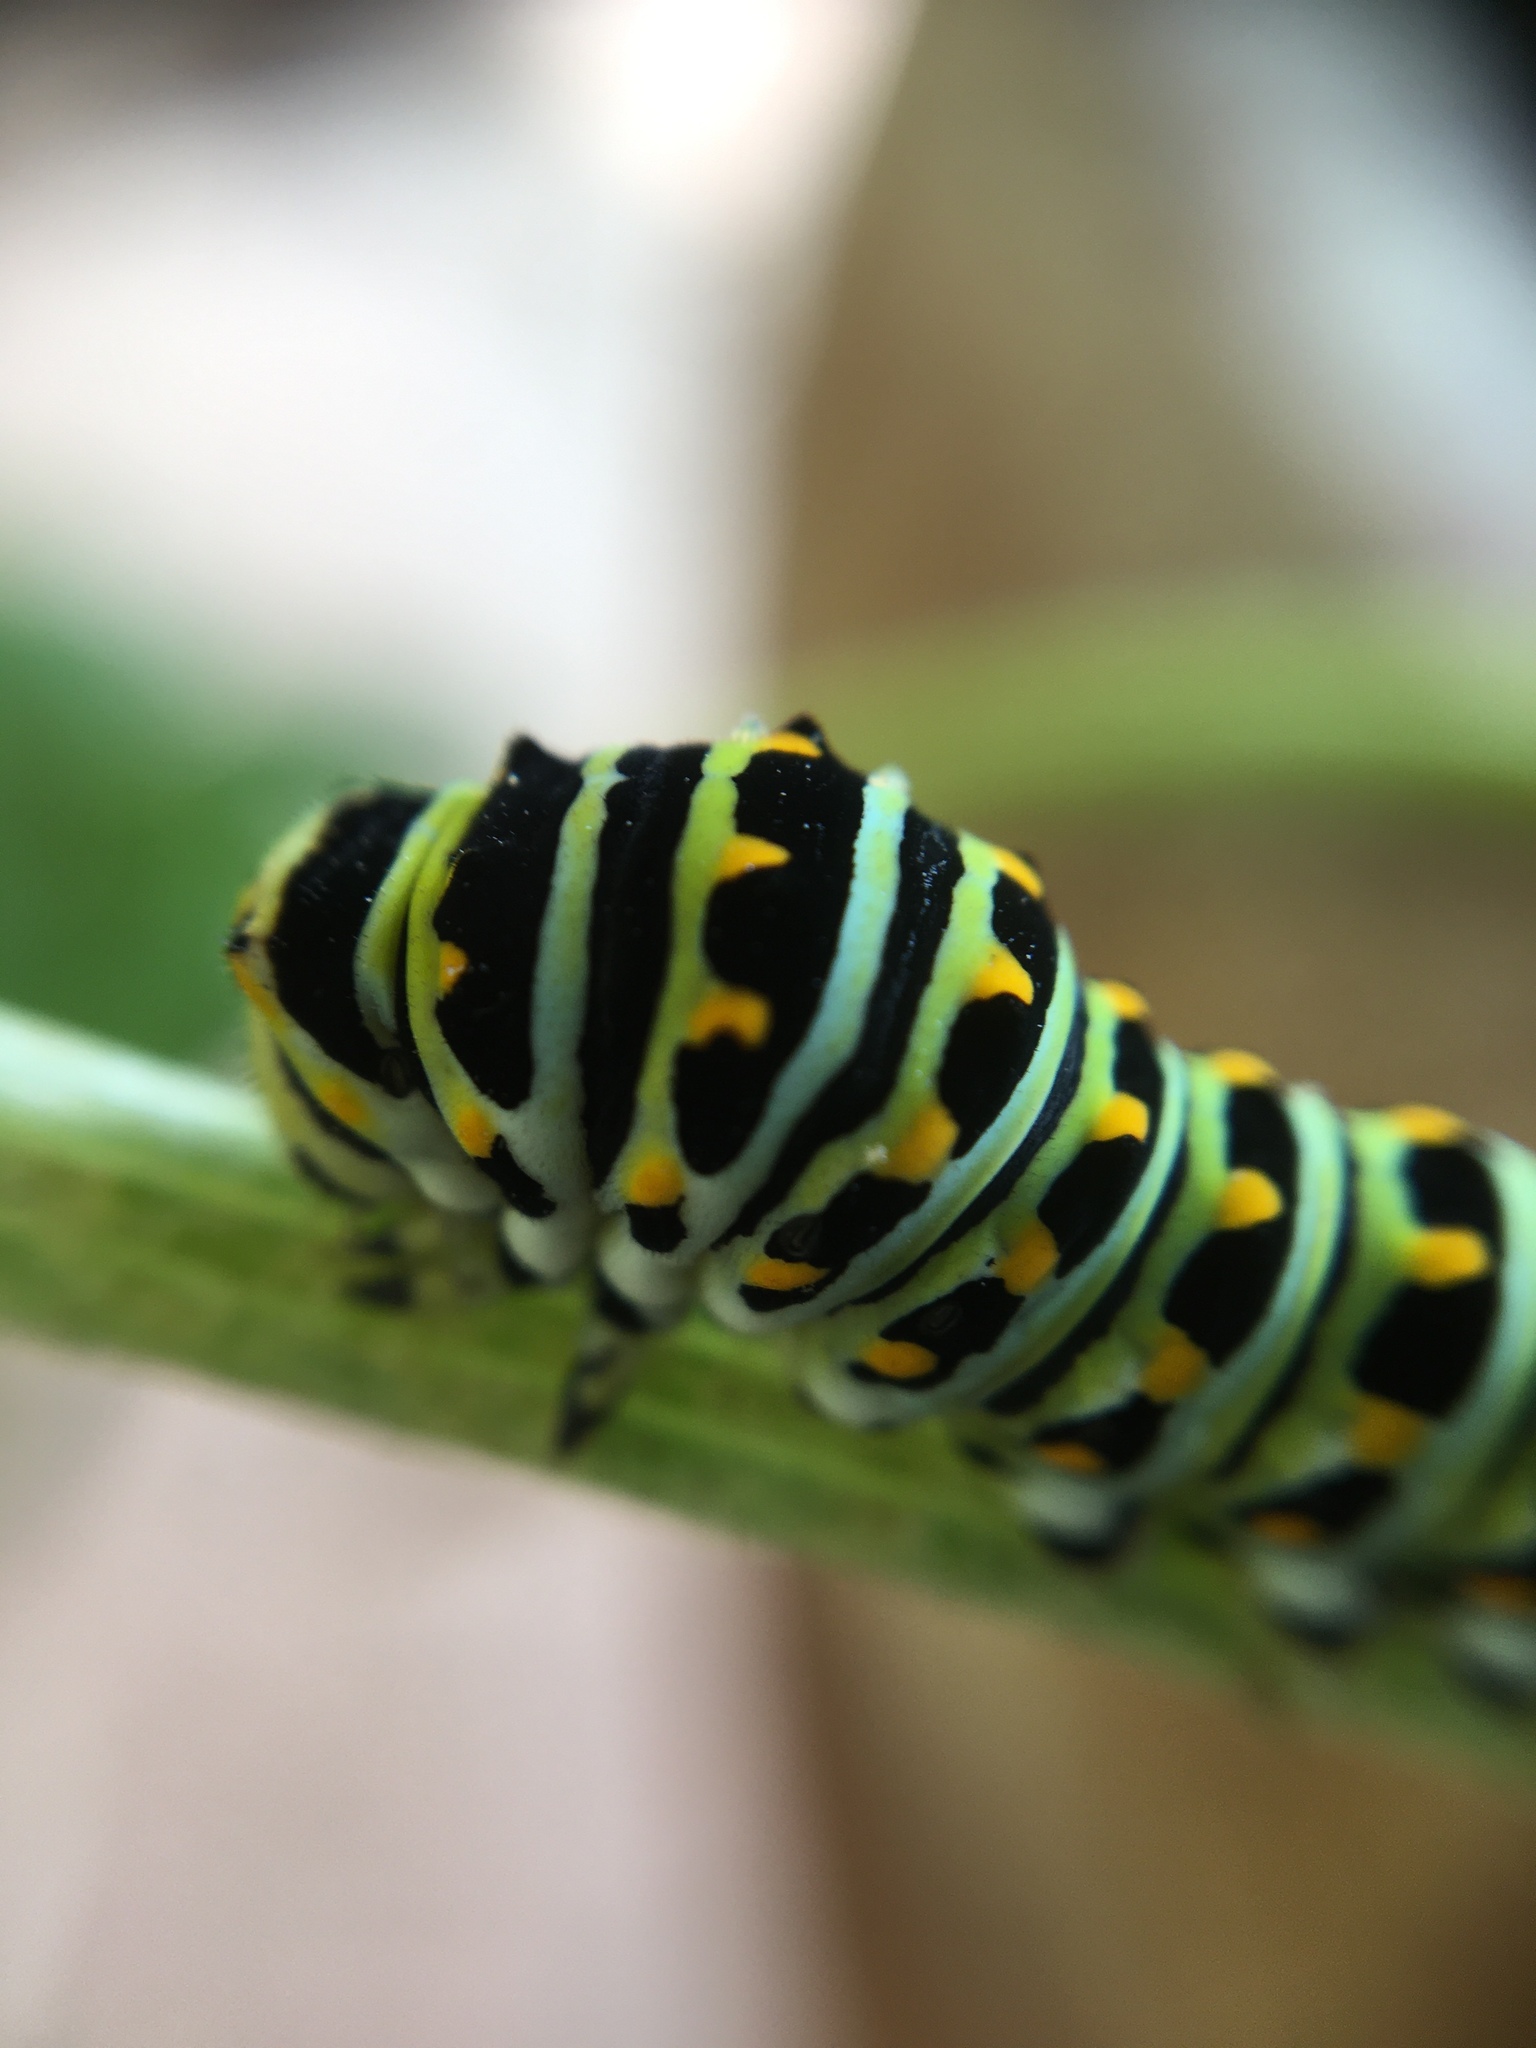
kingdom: Animalia
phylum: Arthropoda
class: Insecta
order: Lepidoptera
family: Papilionidae
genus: Papilio
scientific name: Papilio zelicaon
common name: Anise swallowtail
